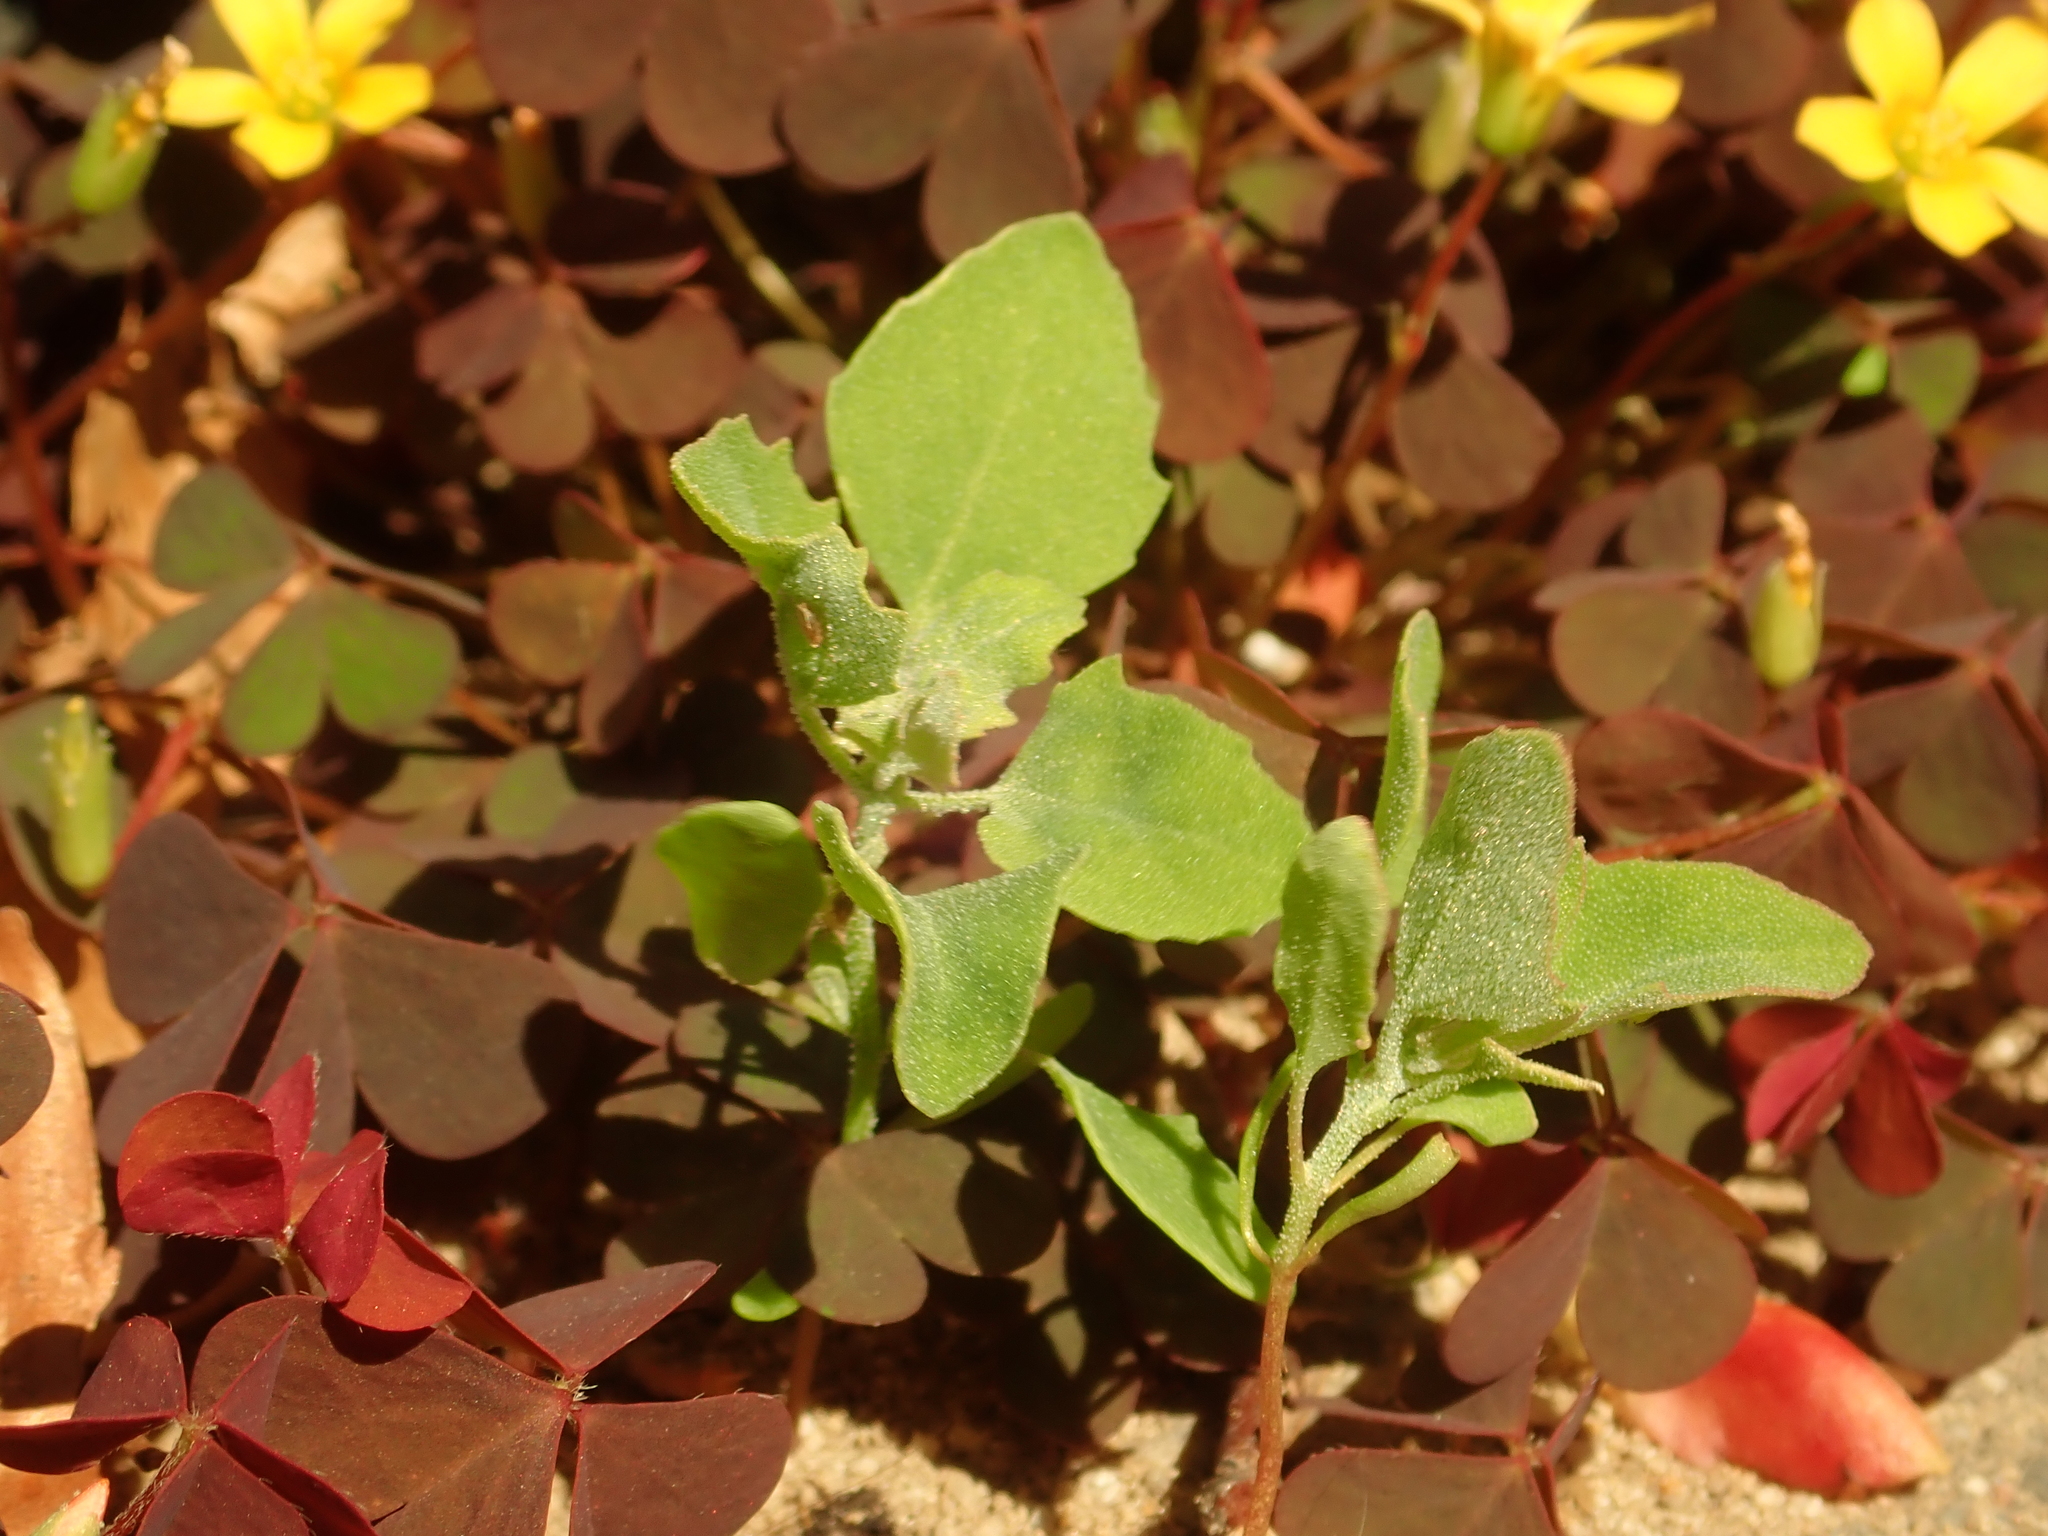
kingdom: Plantae
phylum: Tracheophyta
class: Magnoliopsida
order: Caryophyllales
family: Amaranthaceae
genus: Chenopodium
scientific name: Chenopodium album
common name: Fat-hen
